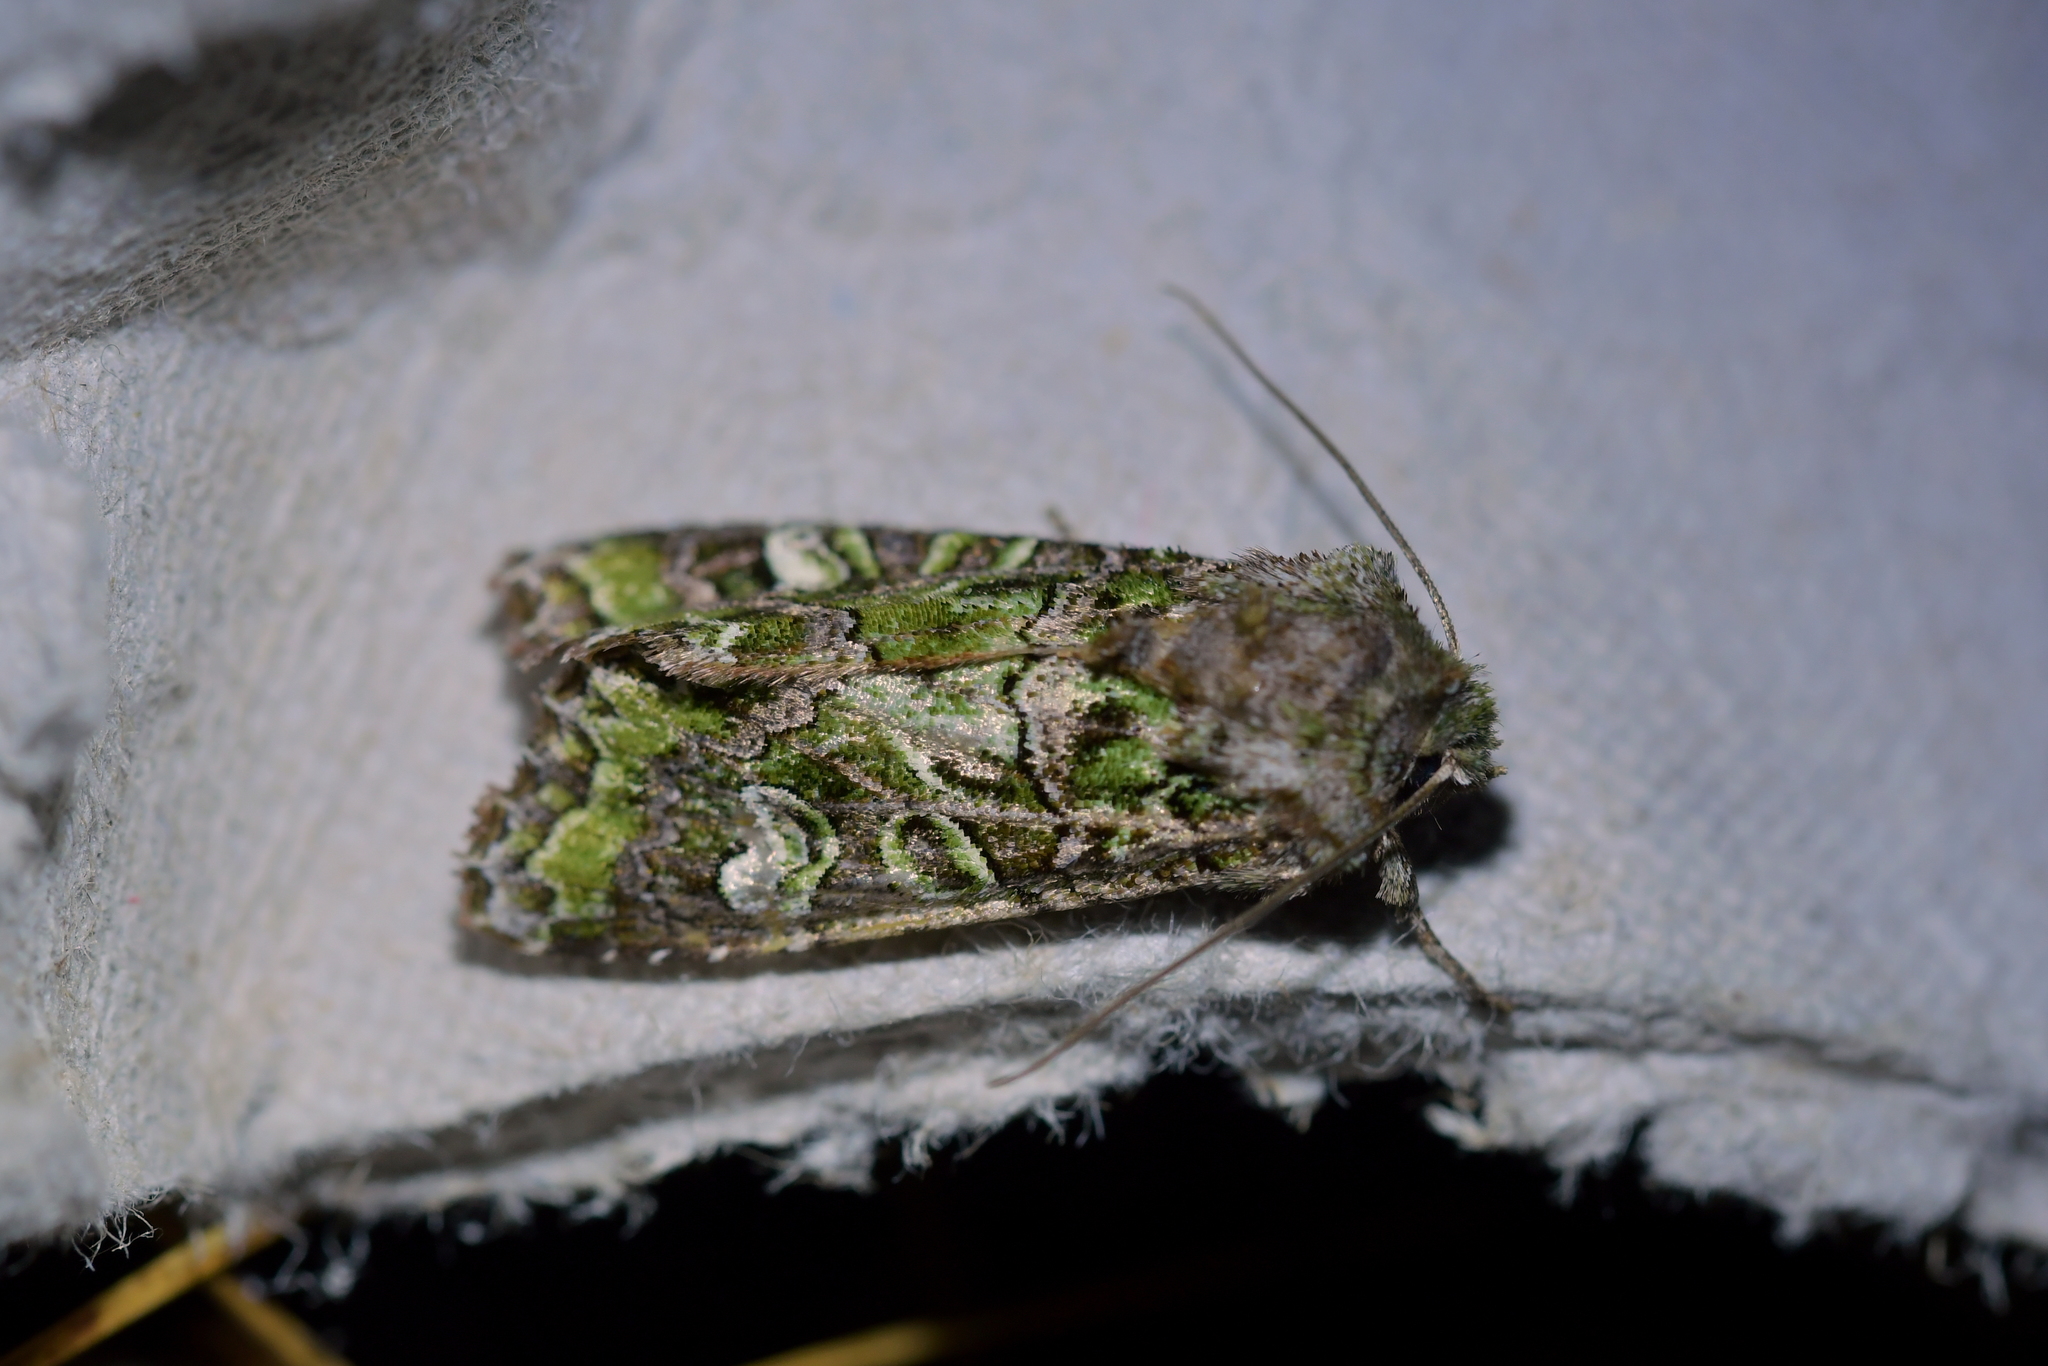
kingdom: Animalia
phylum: Arthropoda
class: Insecta
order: Lepidoptera
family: Noctuidae
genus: Ichneutica
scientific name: Ichneutica chlorodonta
